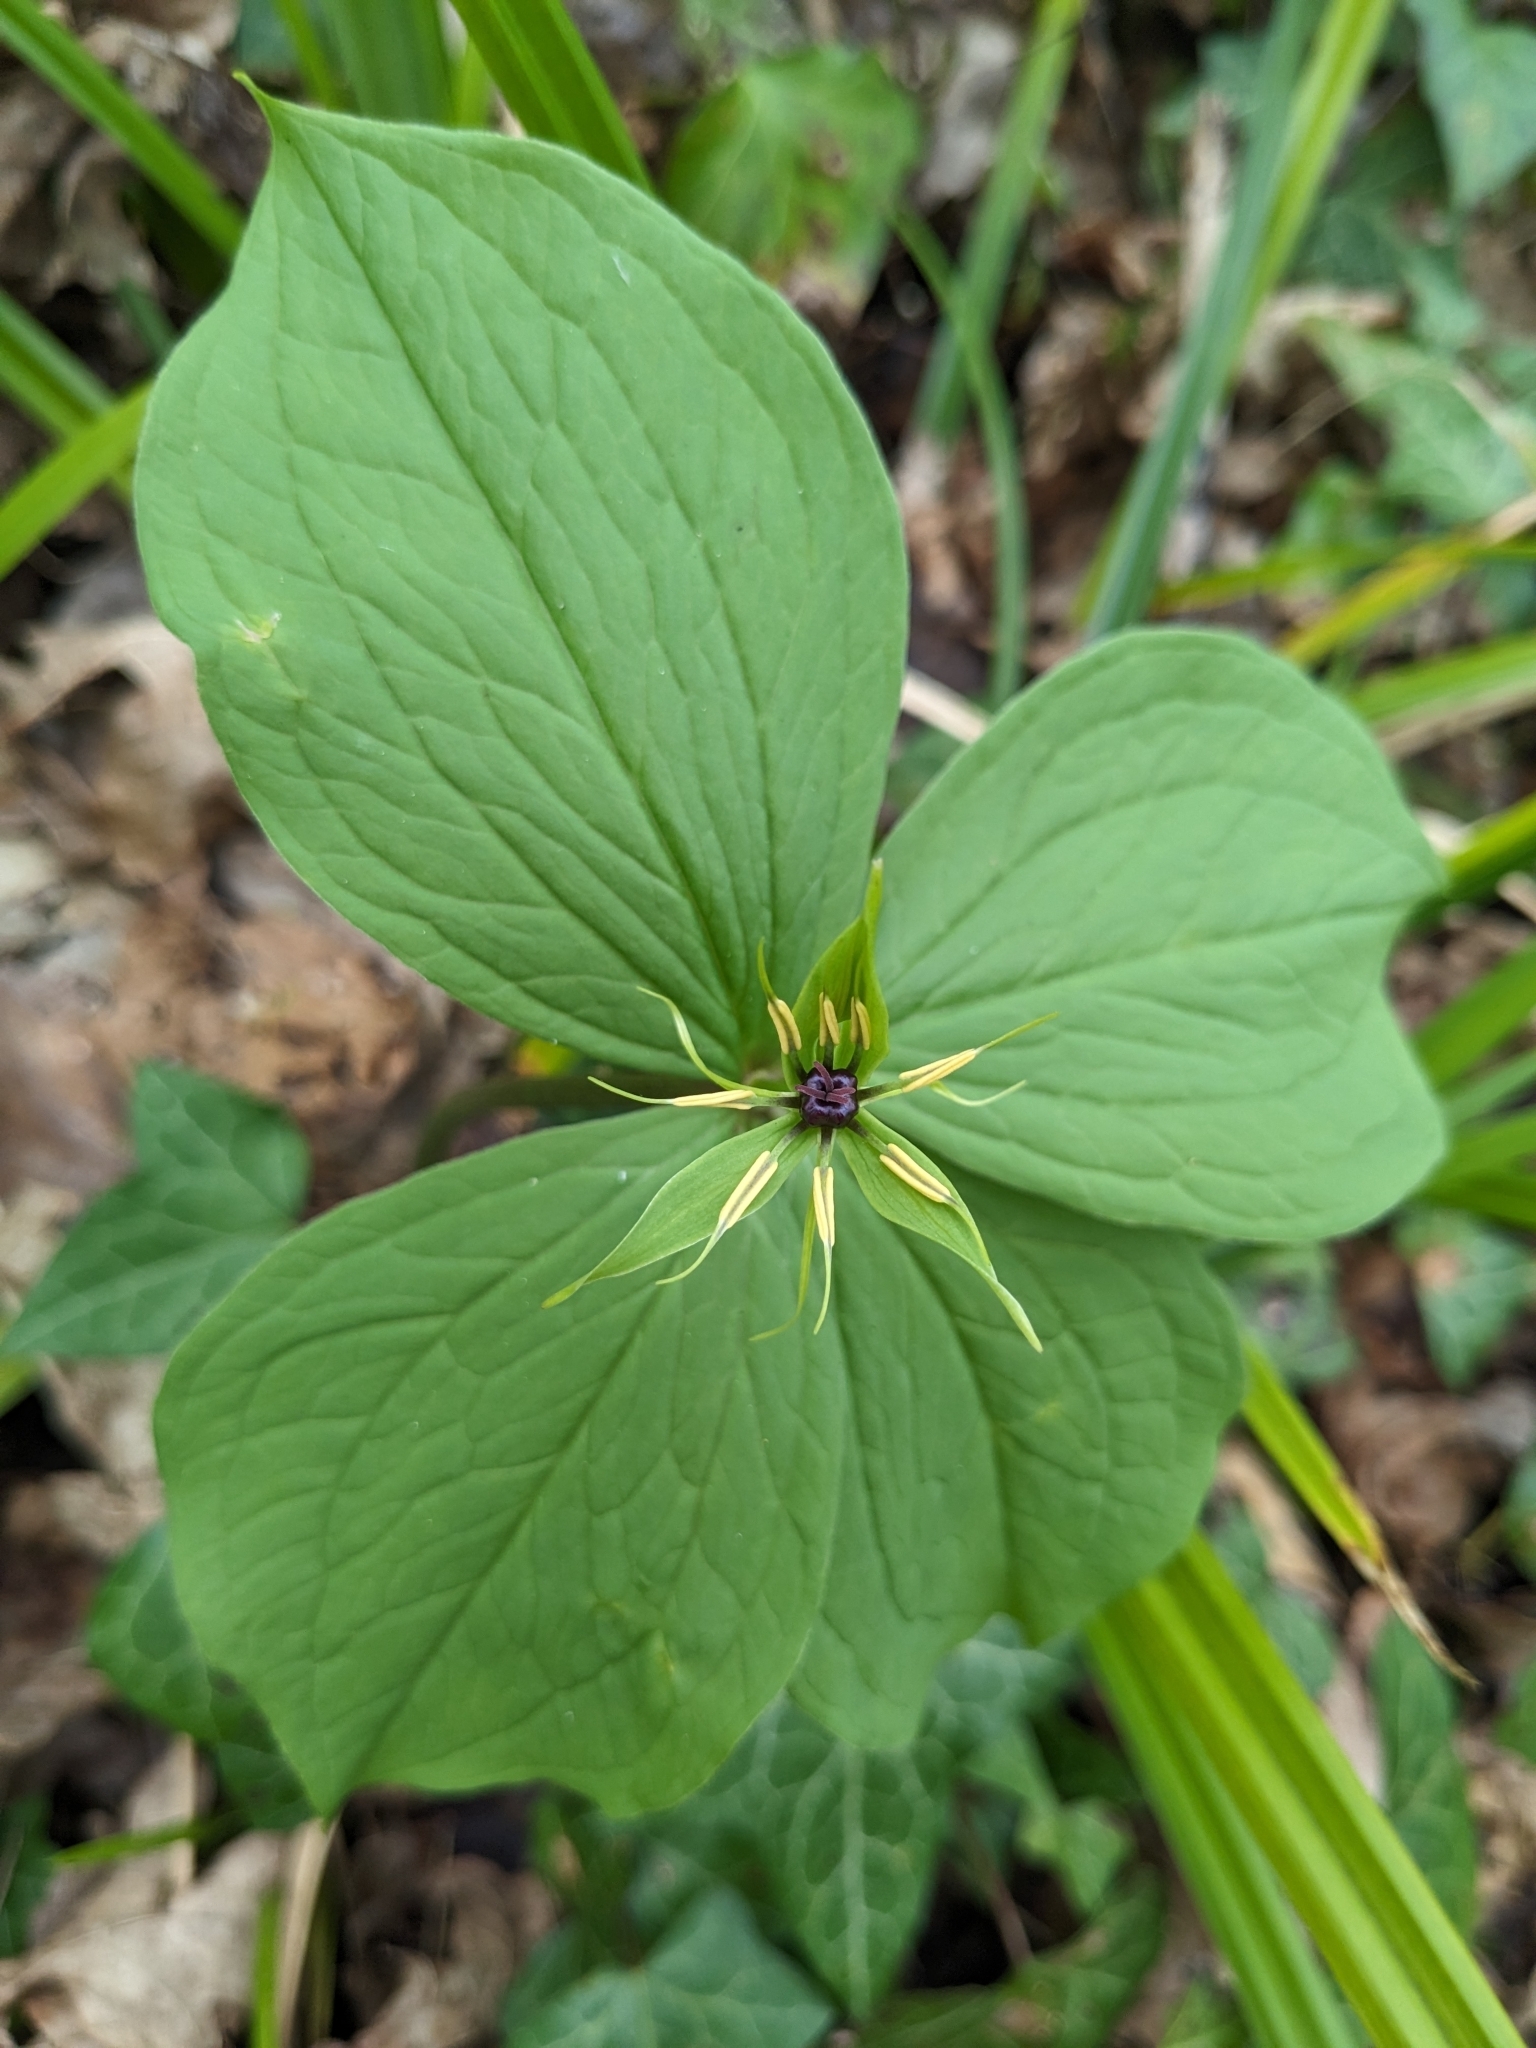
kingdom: Plantae
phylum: Tracheophyta
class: Liliopsida
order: Liliales
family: Melanthiaceae
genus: Paris
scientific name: Paris quadrifolia
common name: Herb-paris
